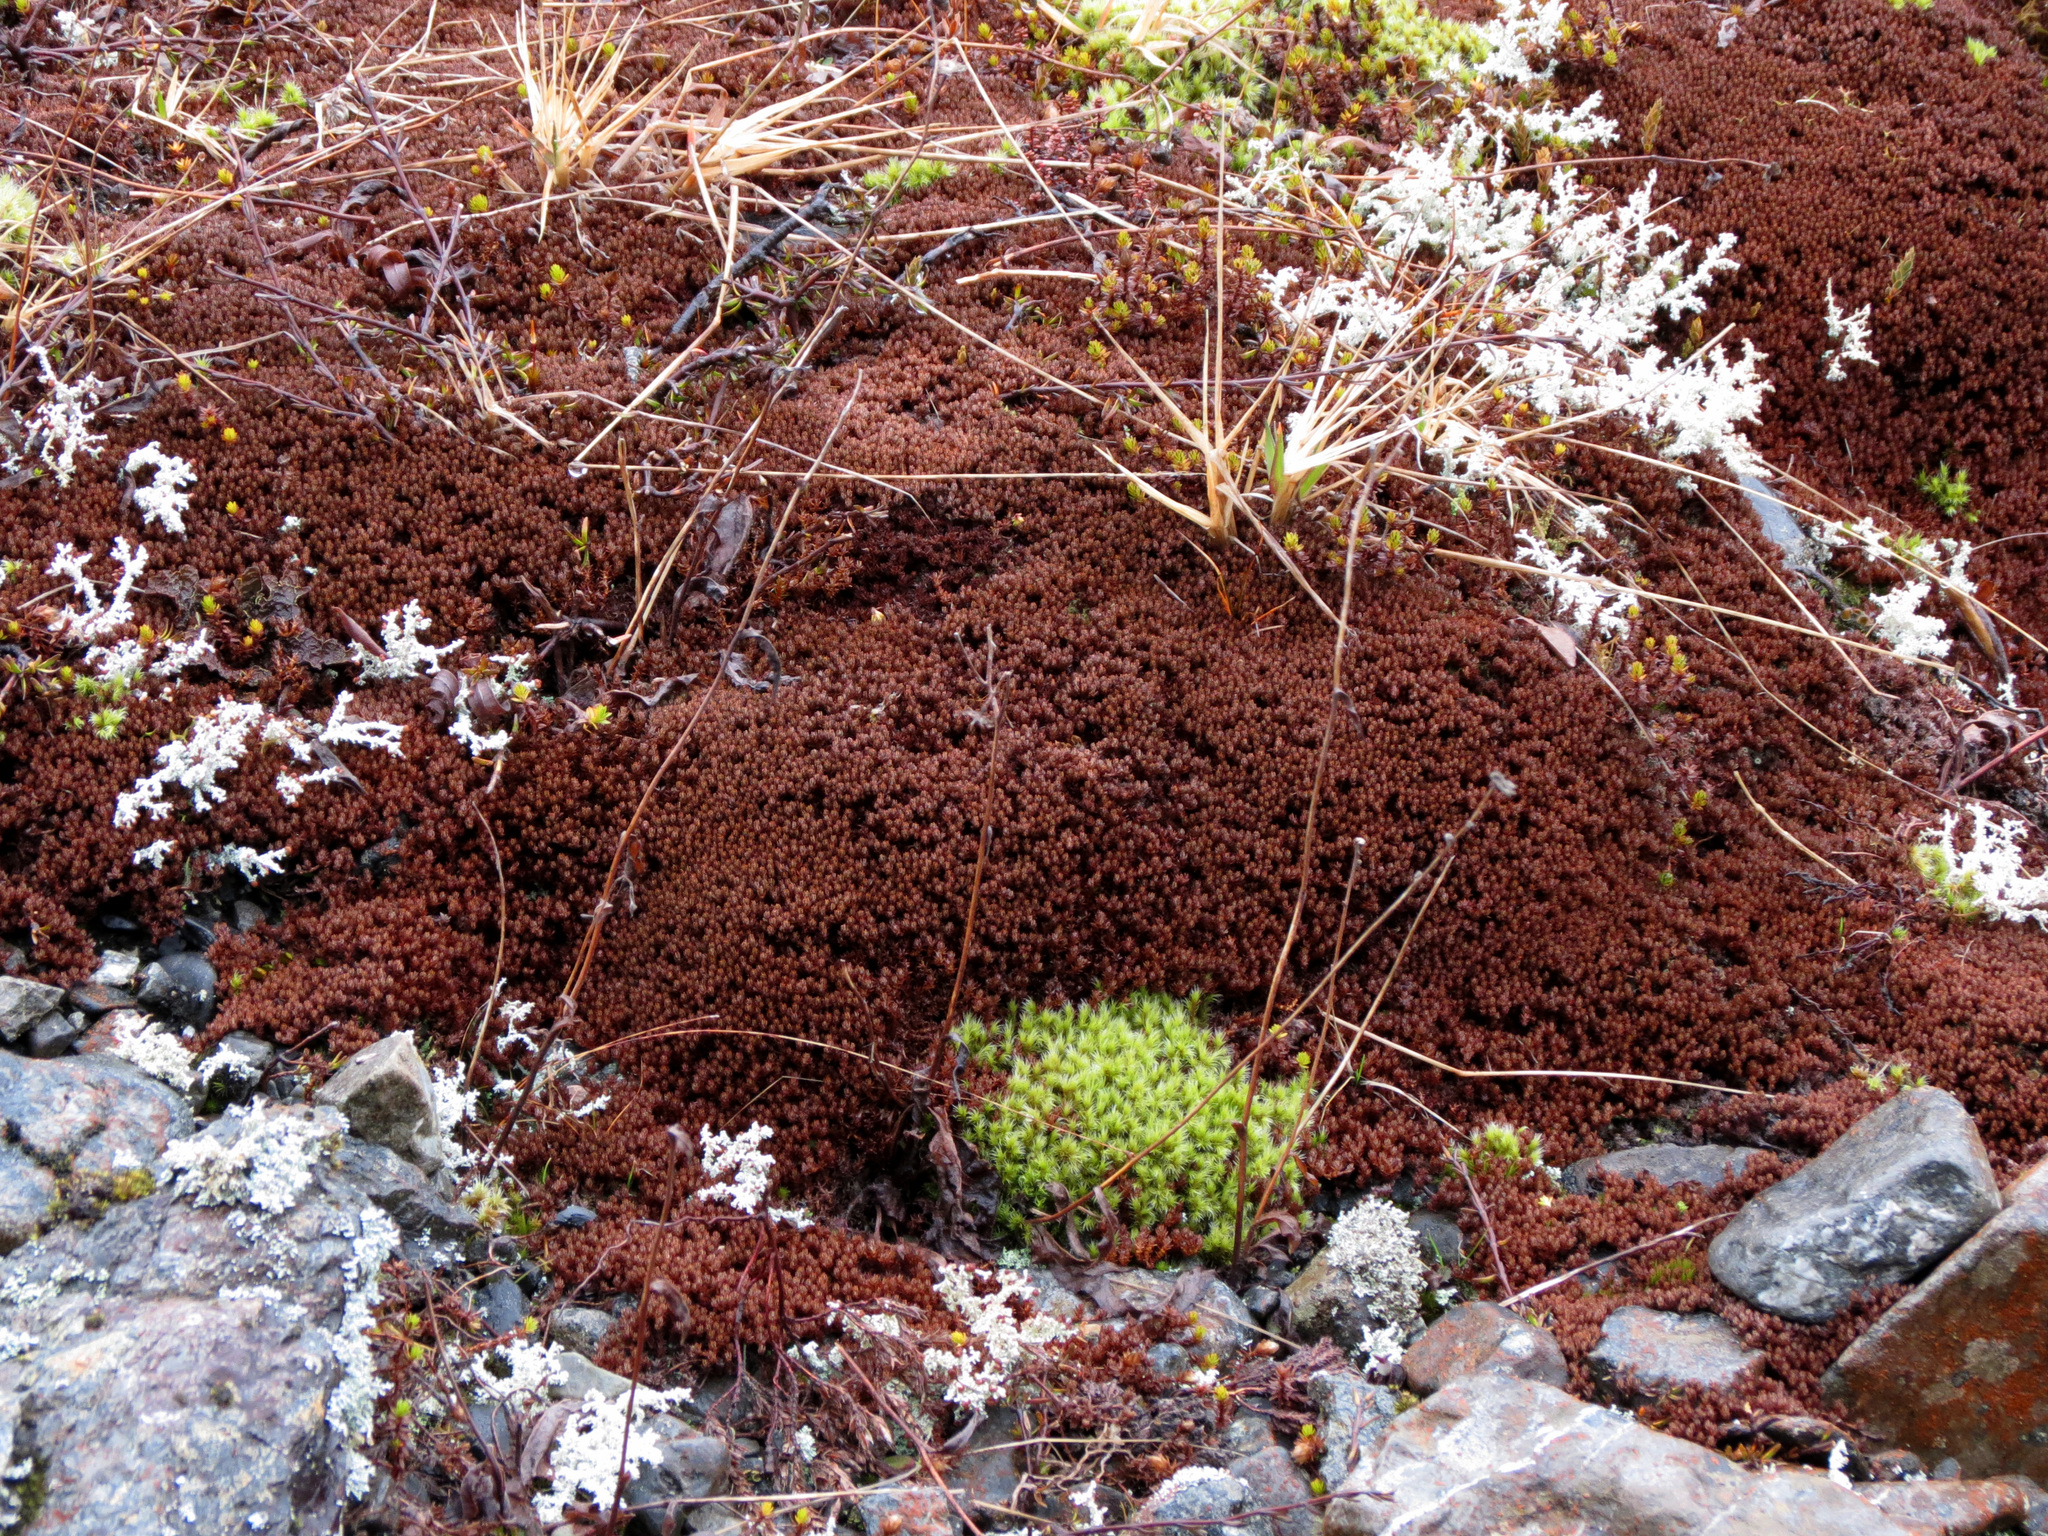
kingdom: Plantae
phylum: Tracheophyta
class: Magnoliopsida
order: Ericales
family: Ericaceae
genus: Montitega
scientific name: Montitega dealbata
